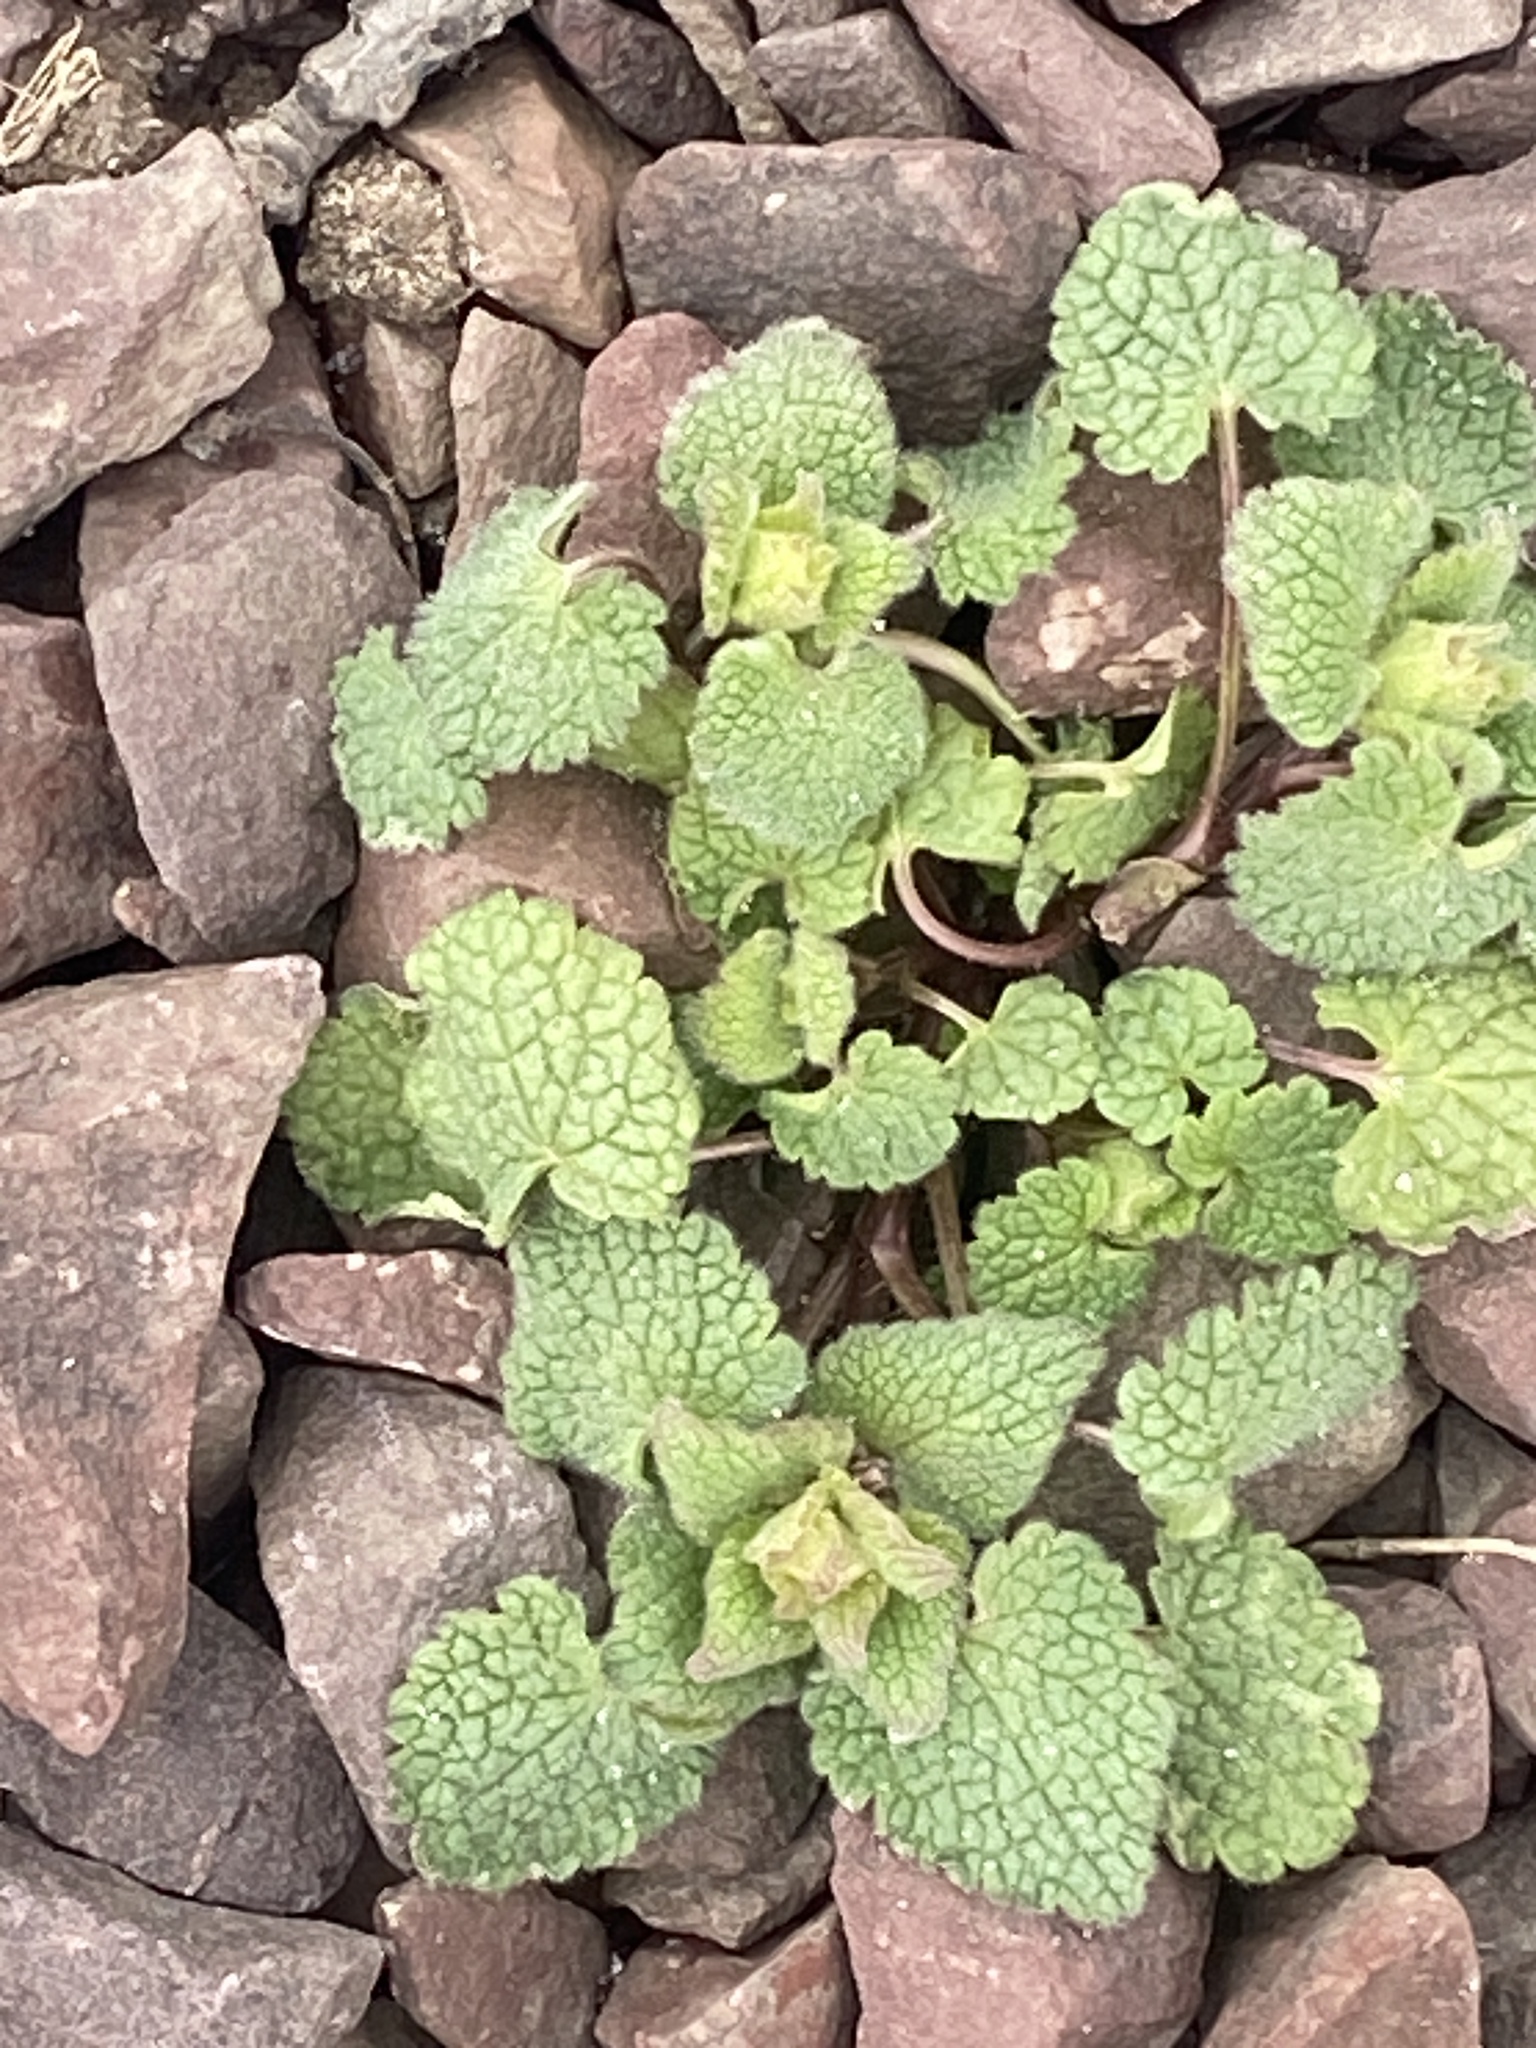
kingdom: Plantae
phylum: Tracheophyta
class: Magnoliopsida
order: Lamiales
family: Lamiaceae
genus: Lamium
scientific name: Lamium purpureum
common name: Red dead-nettle
